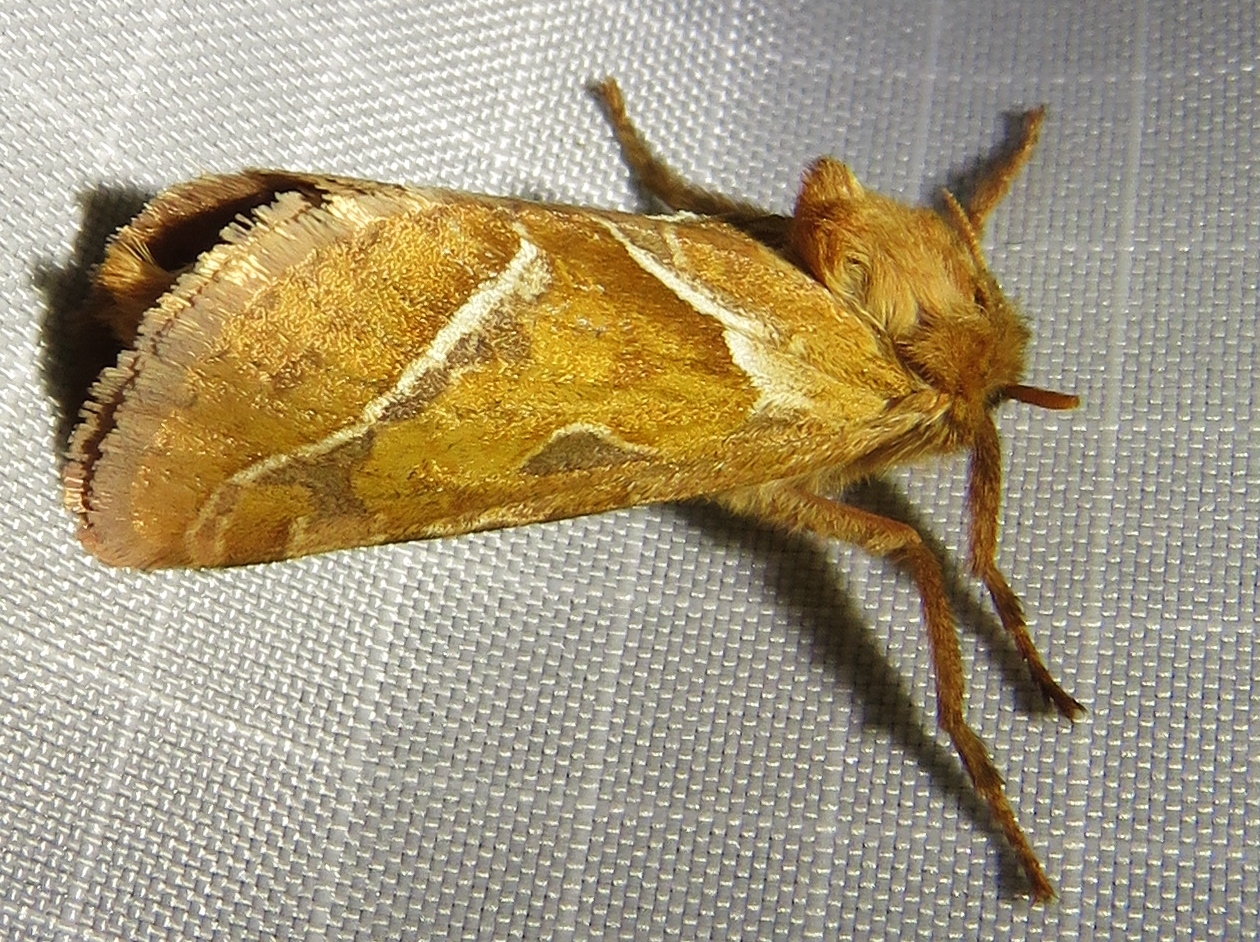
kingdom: Animalia
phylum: Arthropoda
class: Insecta
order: Lepidoptera
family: Hepialidae
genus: Triodia
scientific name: Triodia sylvina
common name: Orange swift
